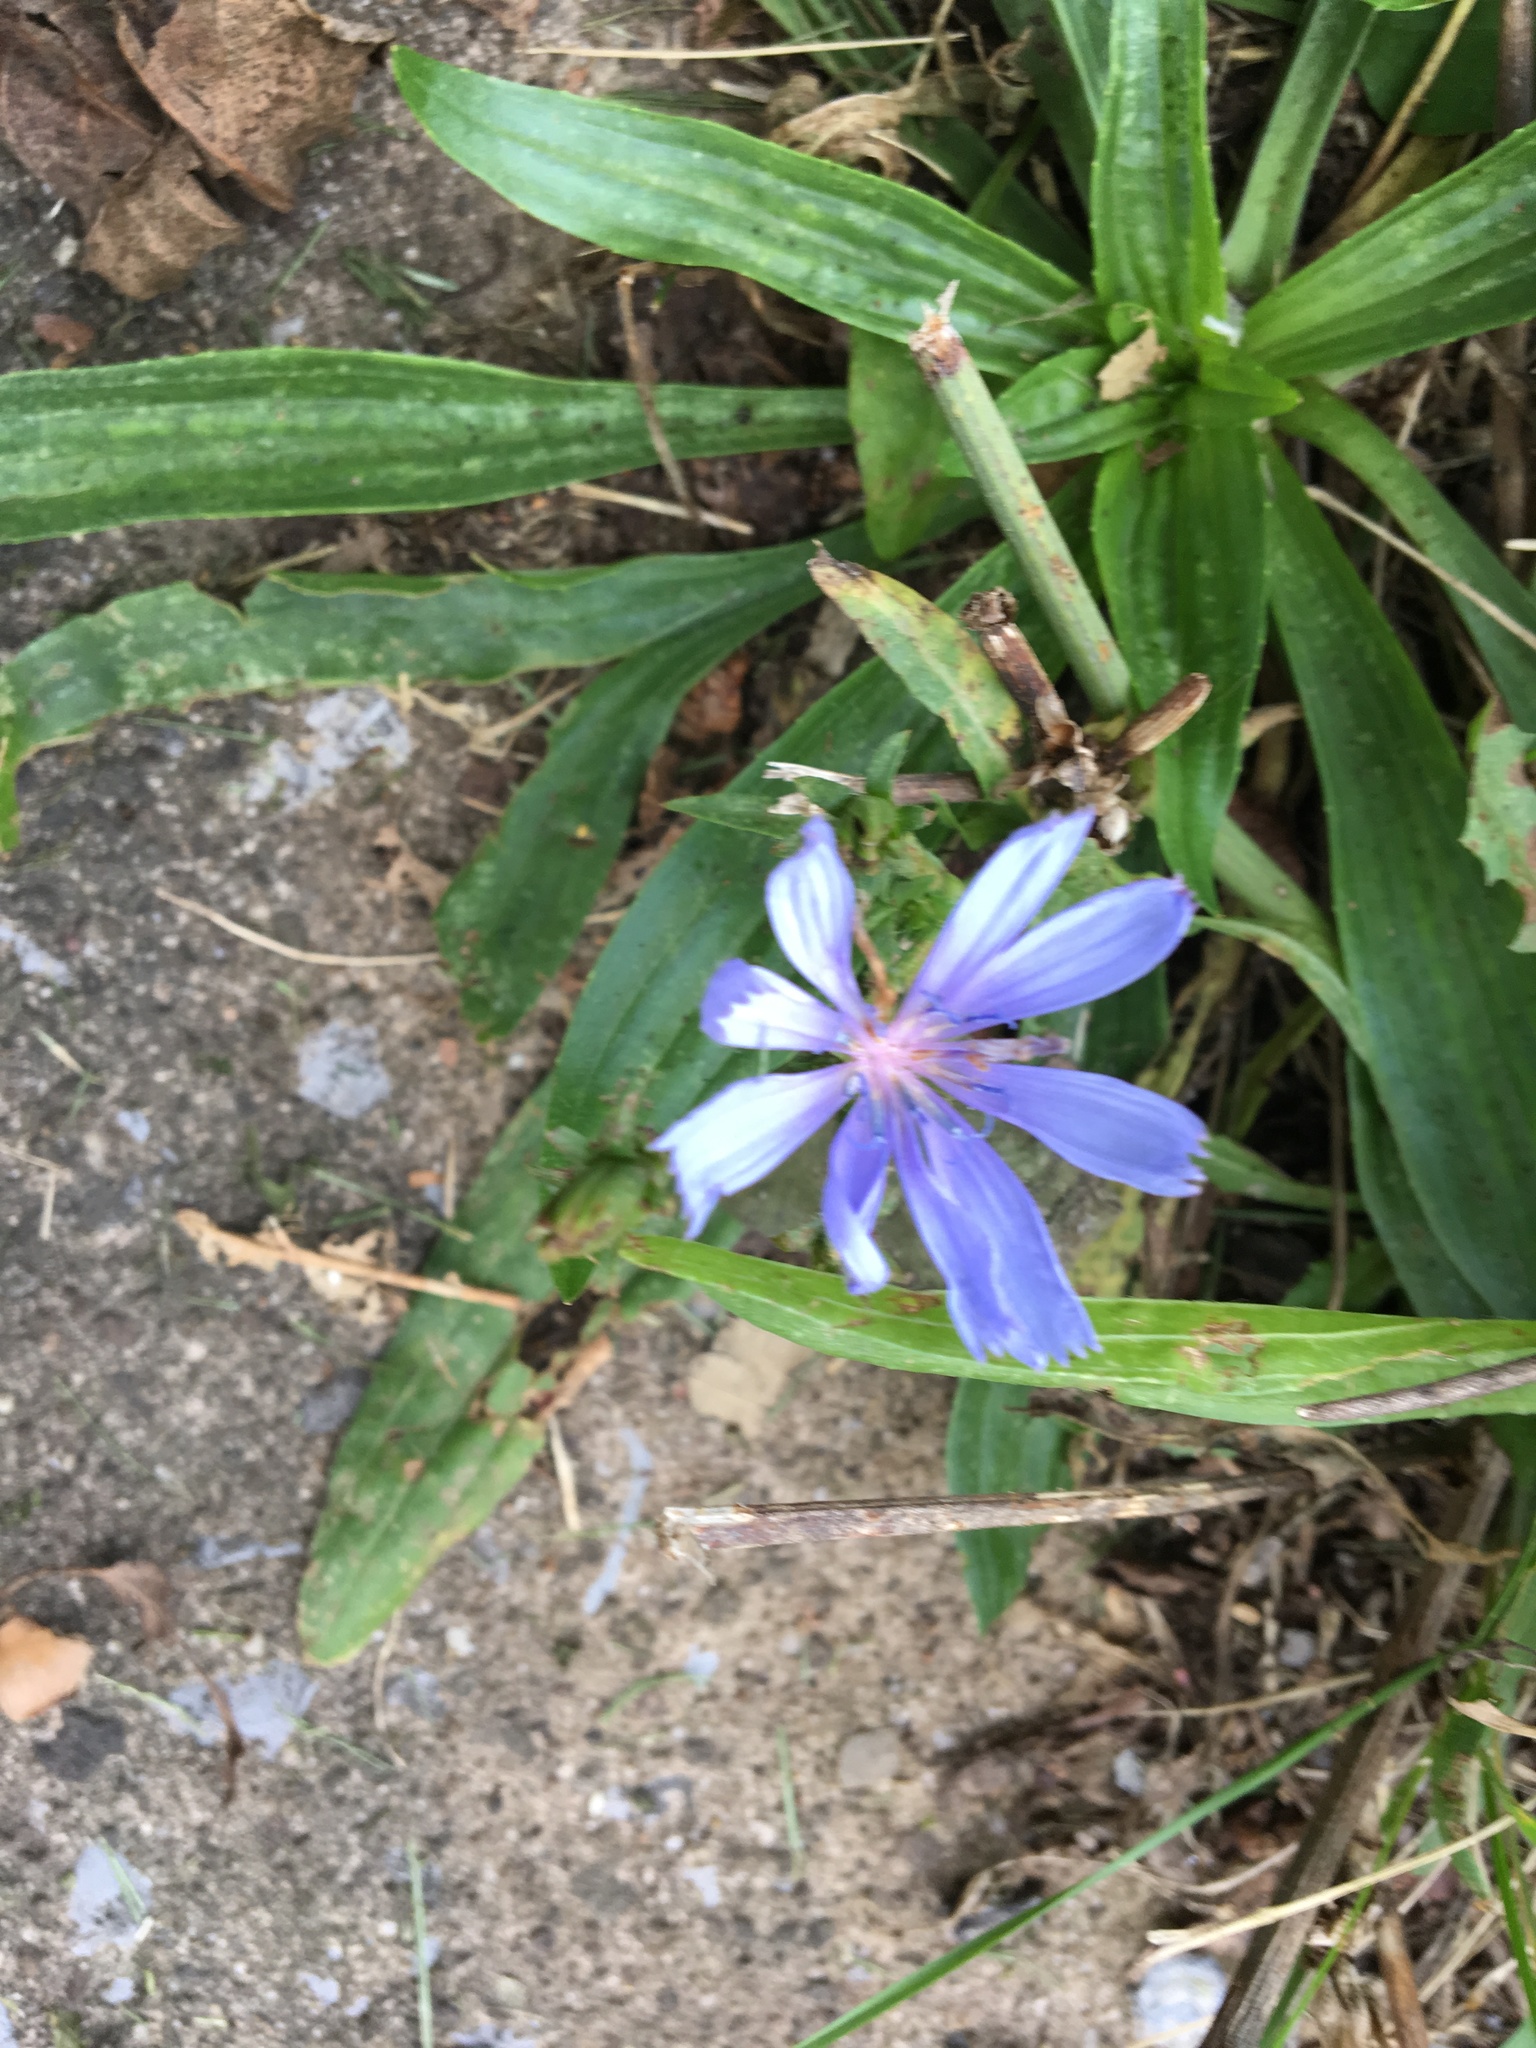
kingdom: Plantae
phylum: Tracheophyta
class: Magnoliopsida
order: Asterales
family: Asteraceae
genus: Cichorium
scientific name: Cichorium intybus
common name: Chicory
